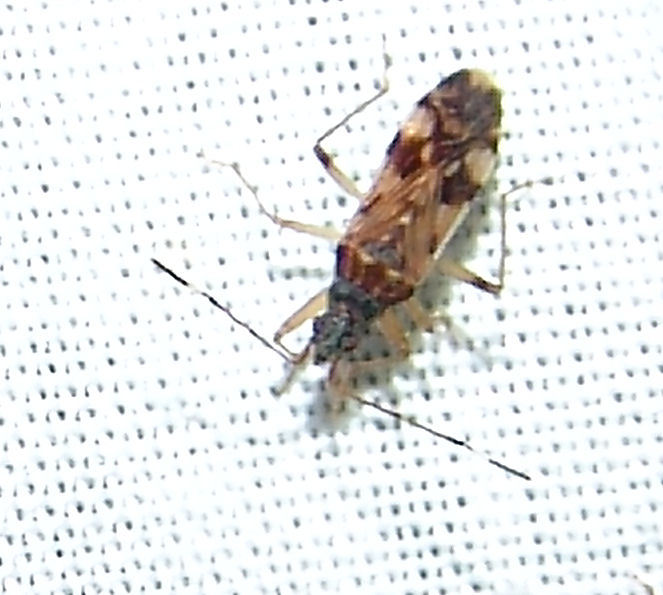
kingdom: Animalia
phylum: Arthropoda
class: Insecta
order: Hemiptera
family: Rhyparochromidae
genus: Ozophora
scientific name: Ozophora picturata
